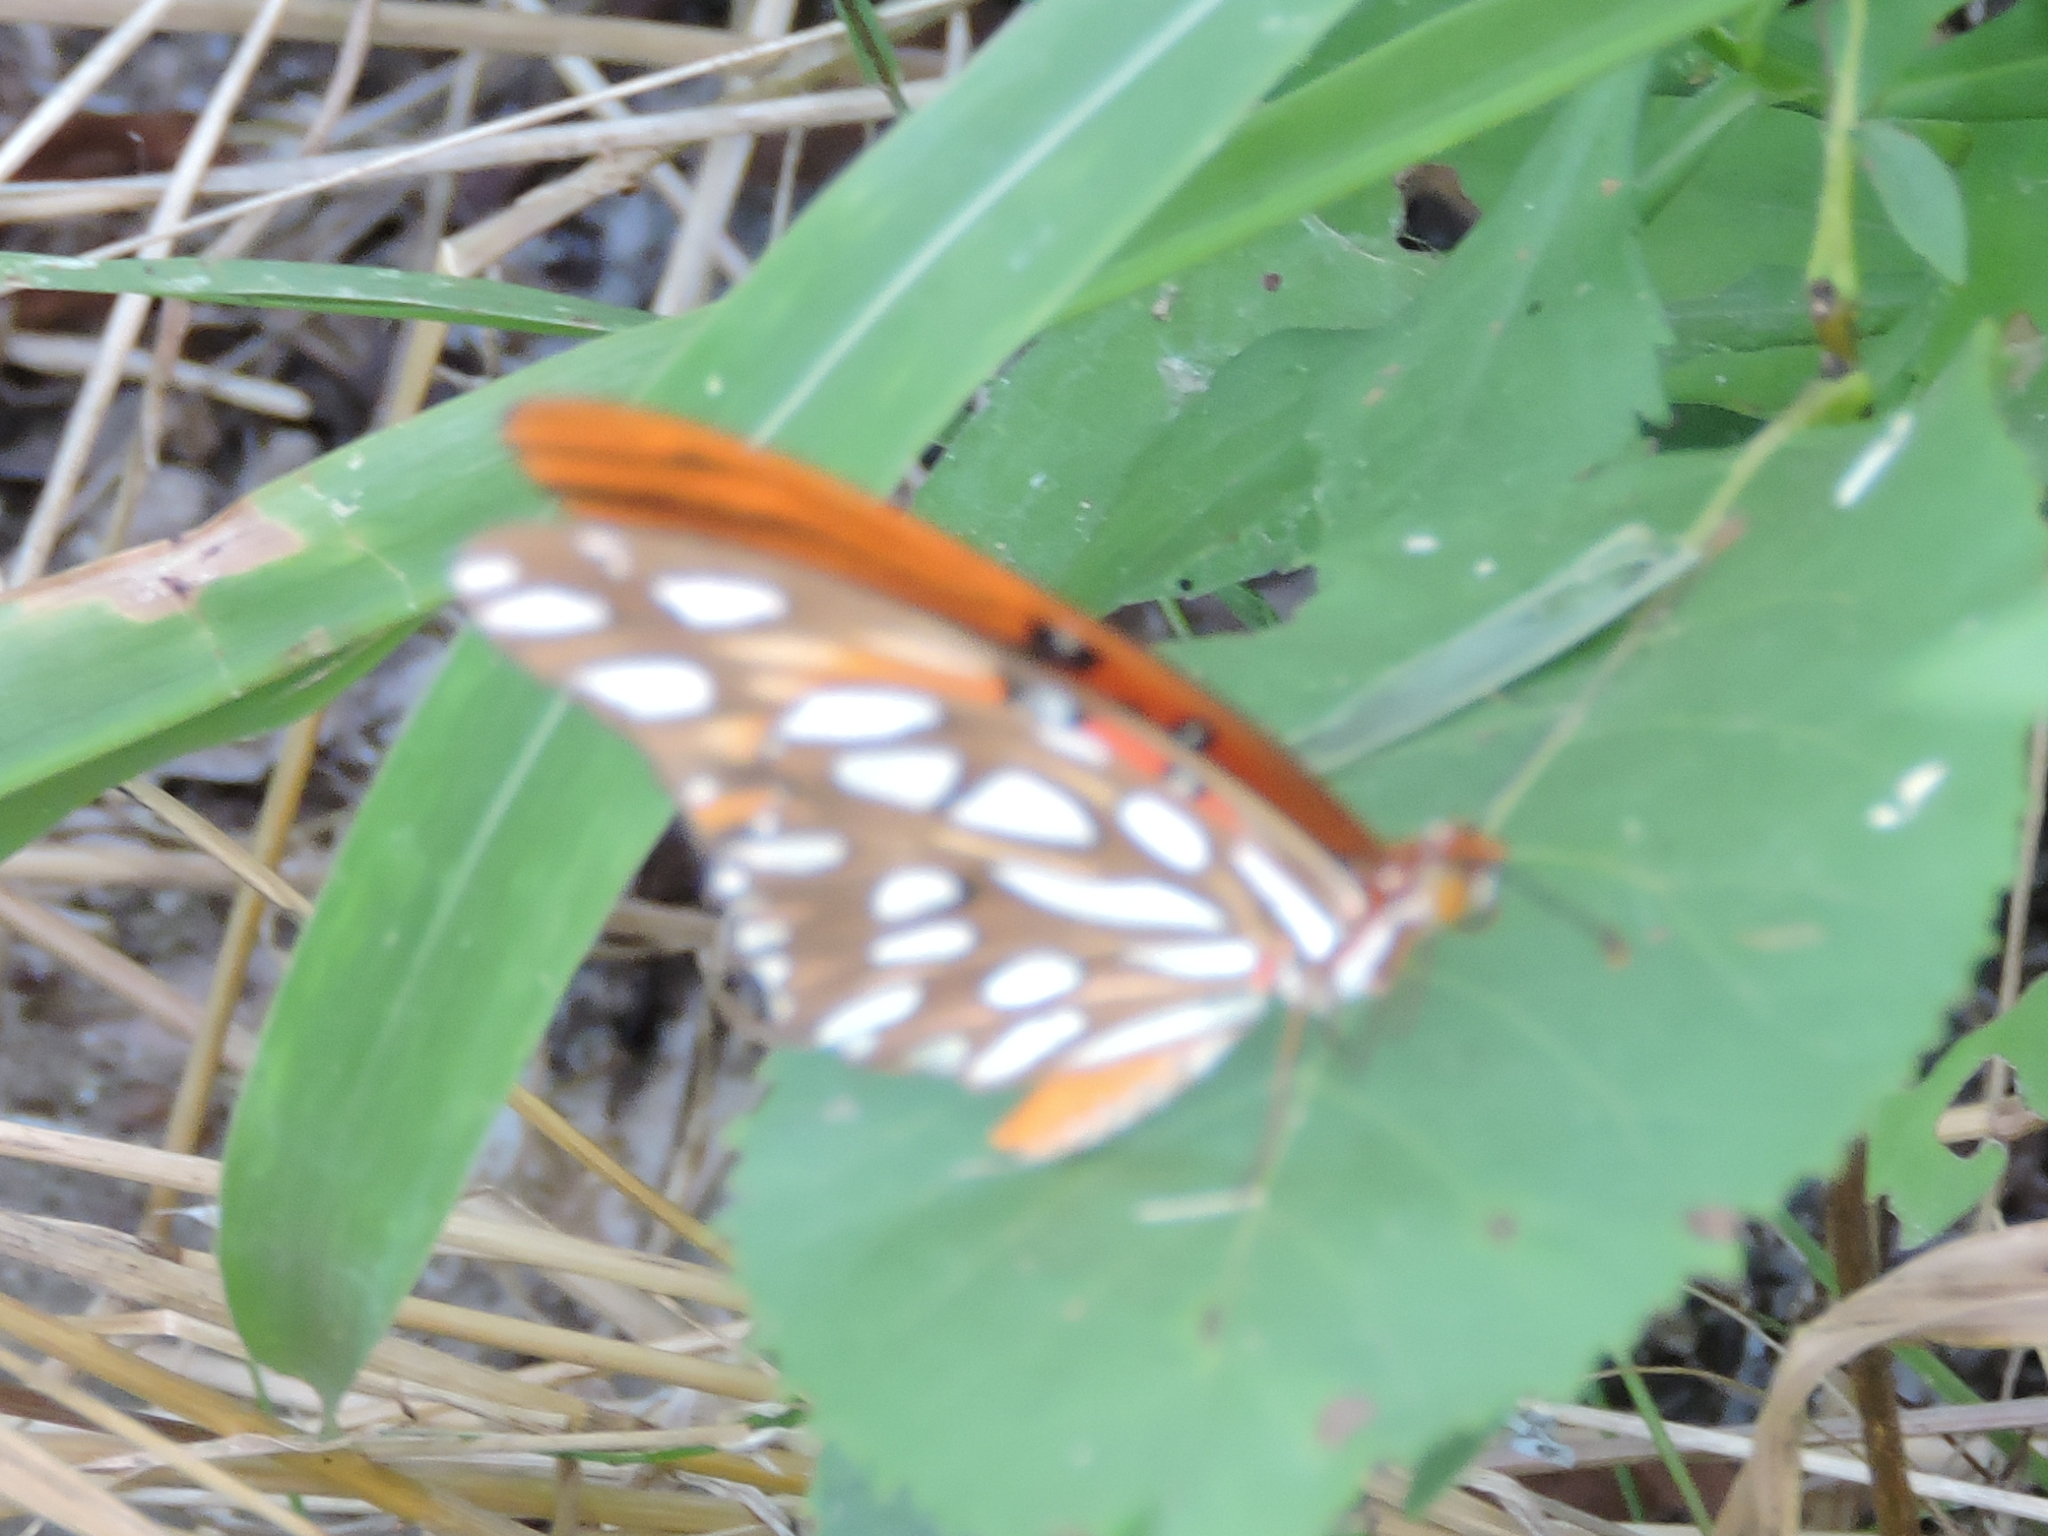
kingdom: Animalia
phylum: Arthropoda
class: Insecta
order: Lepidoptera
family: Nymphalidae
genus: Dione
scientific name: Dione vanillae
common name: Gulf fritillary
